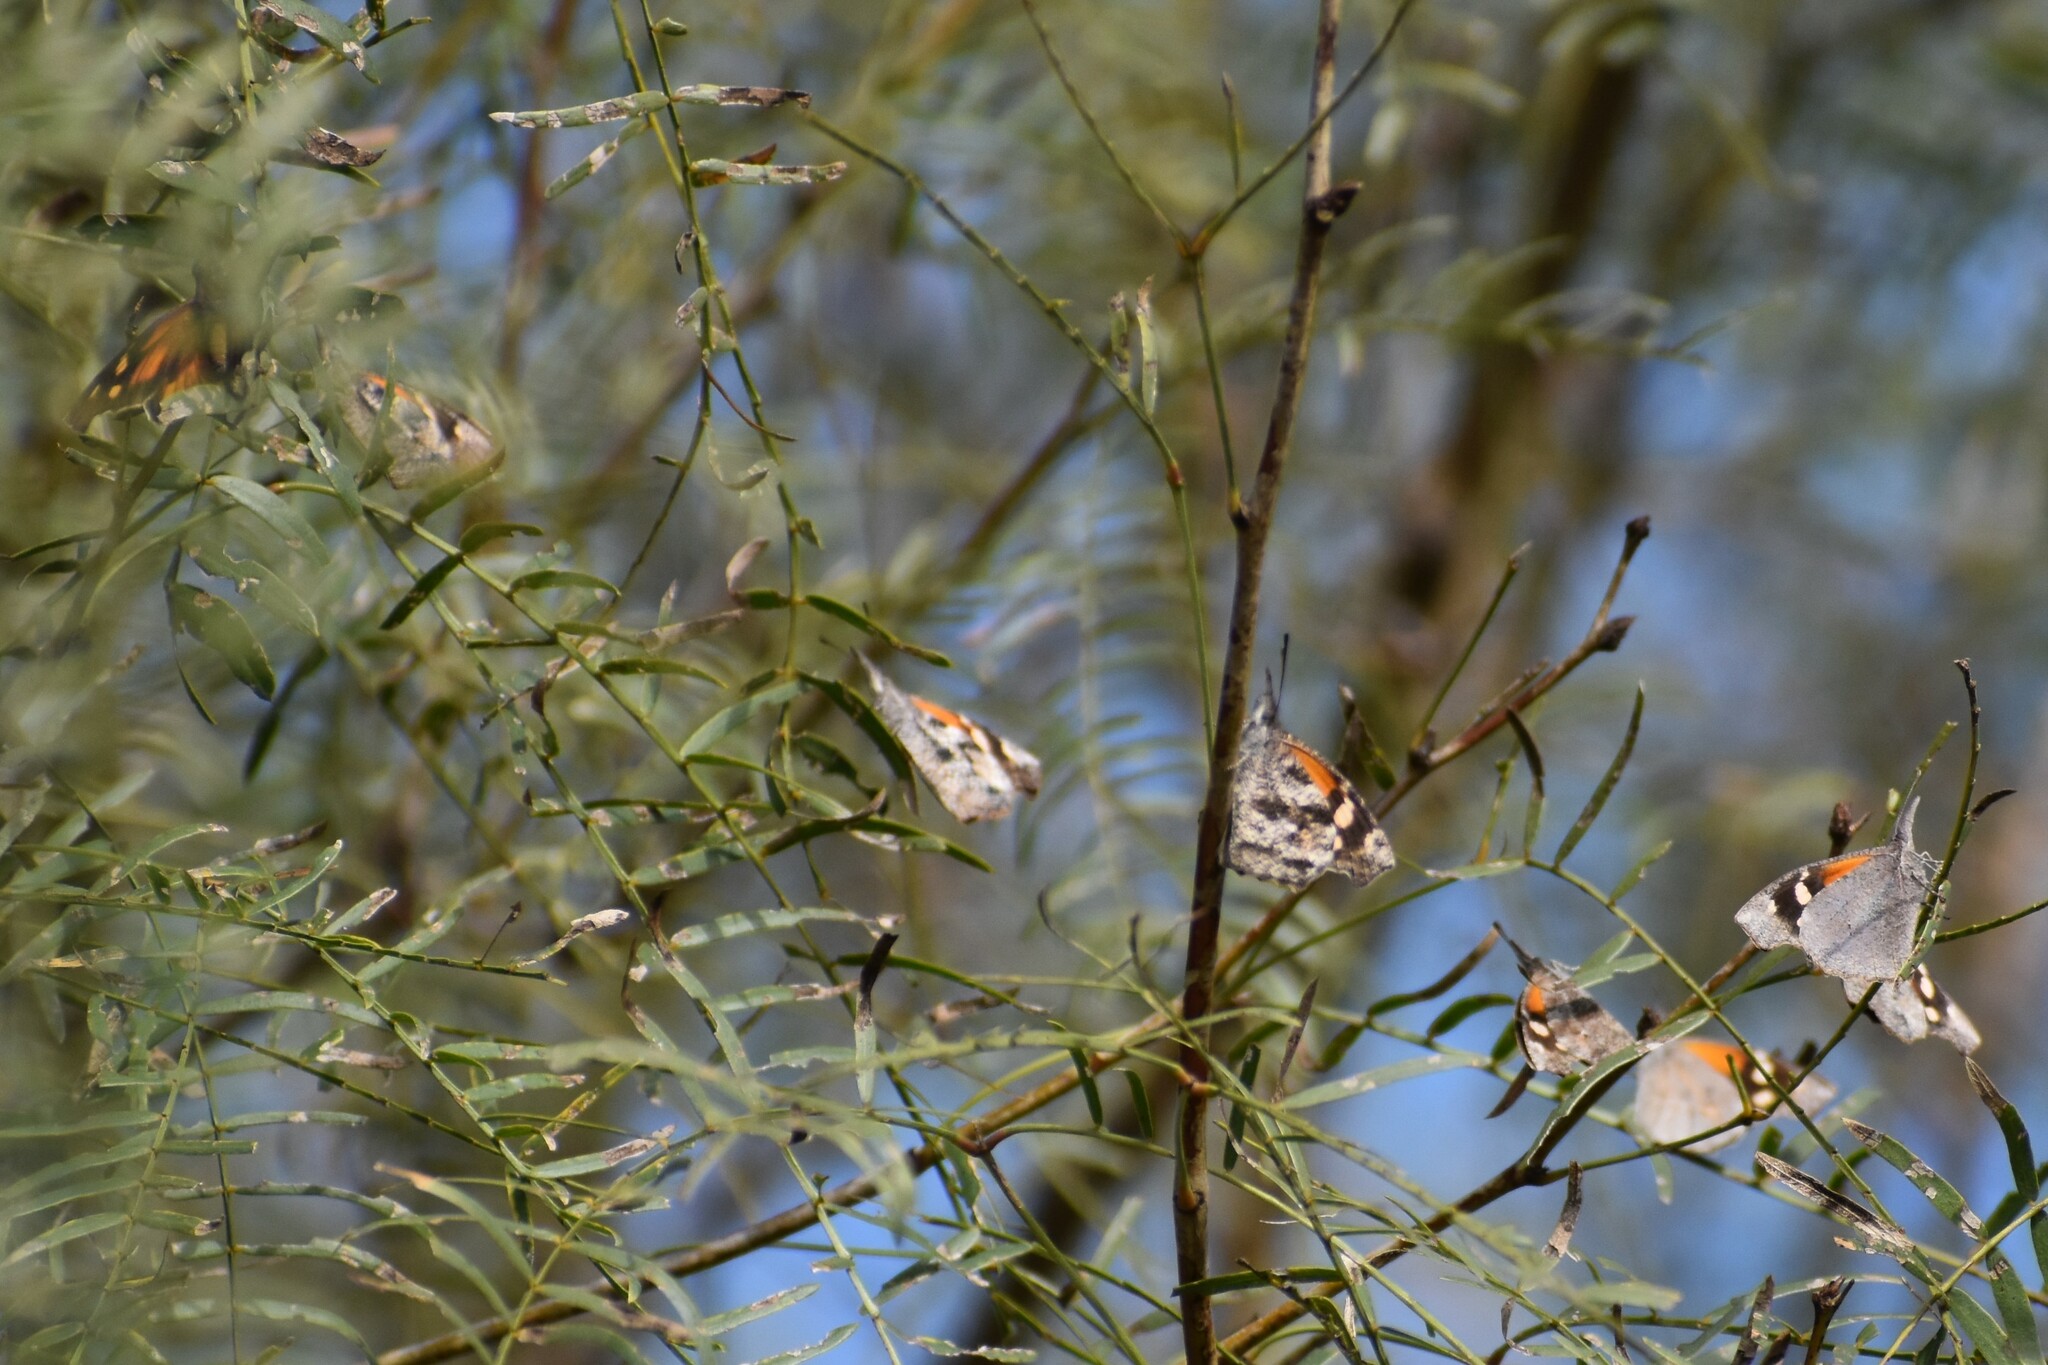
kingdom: Animalia
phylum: Arthropoda
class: Insecta
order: Lepidoptera
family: Nymphalidae
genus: Libytheana
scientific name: Libytheana carinenta
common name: American snout
